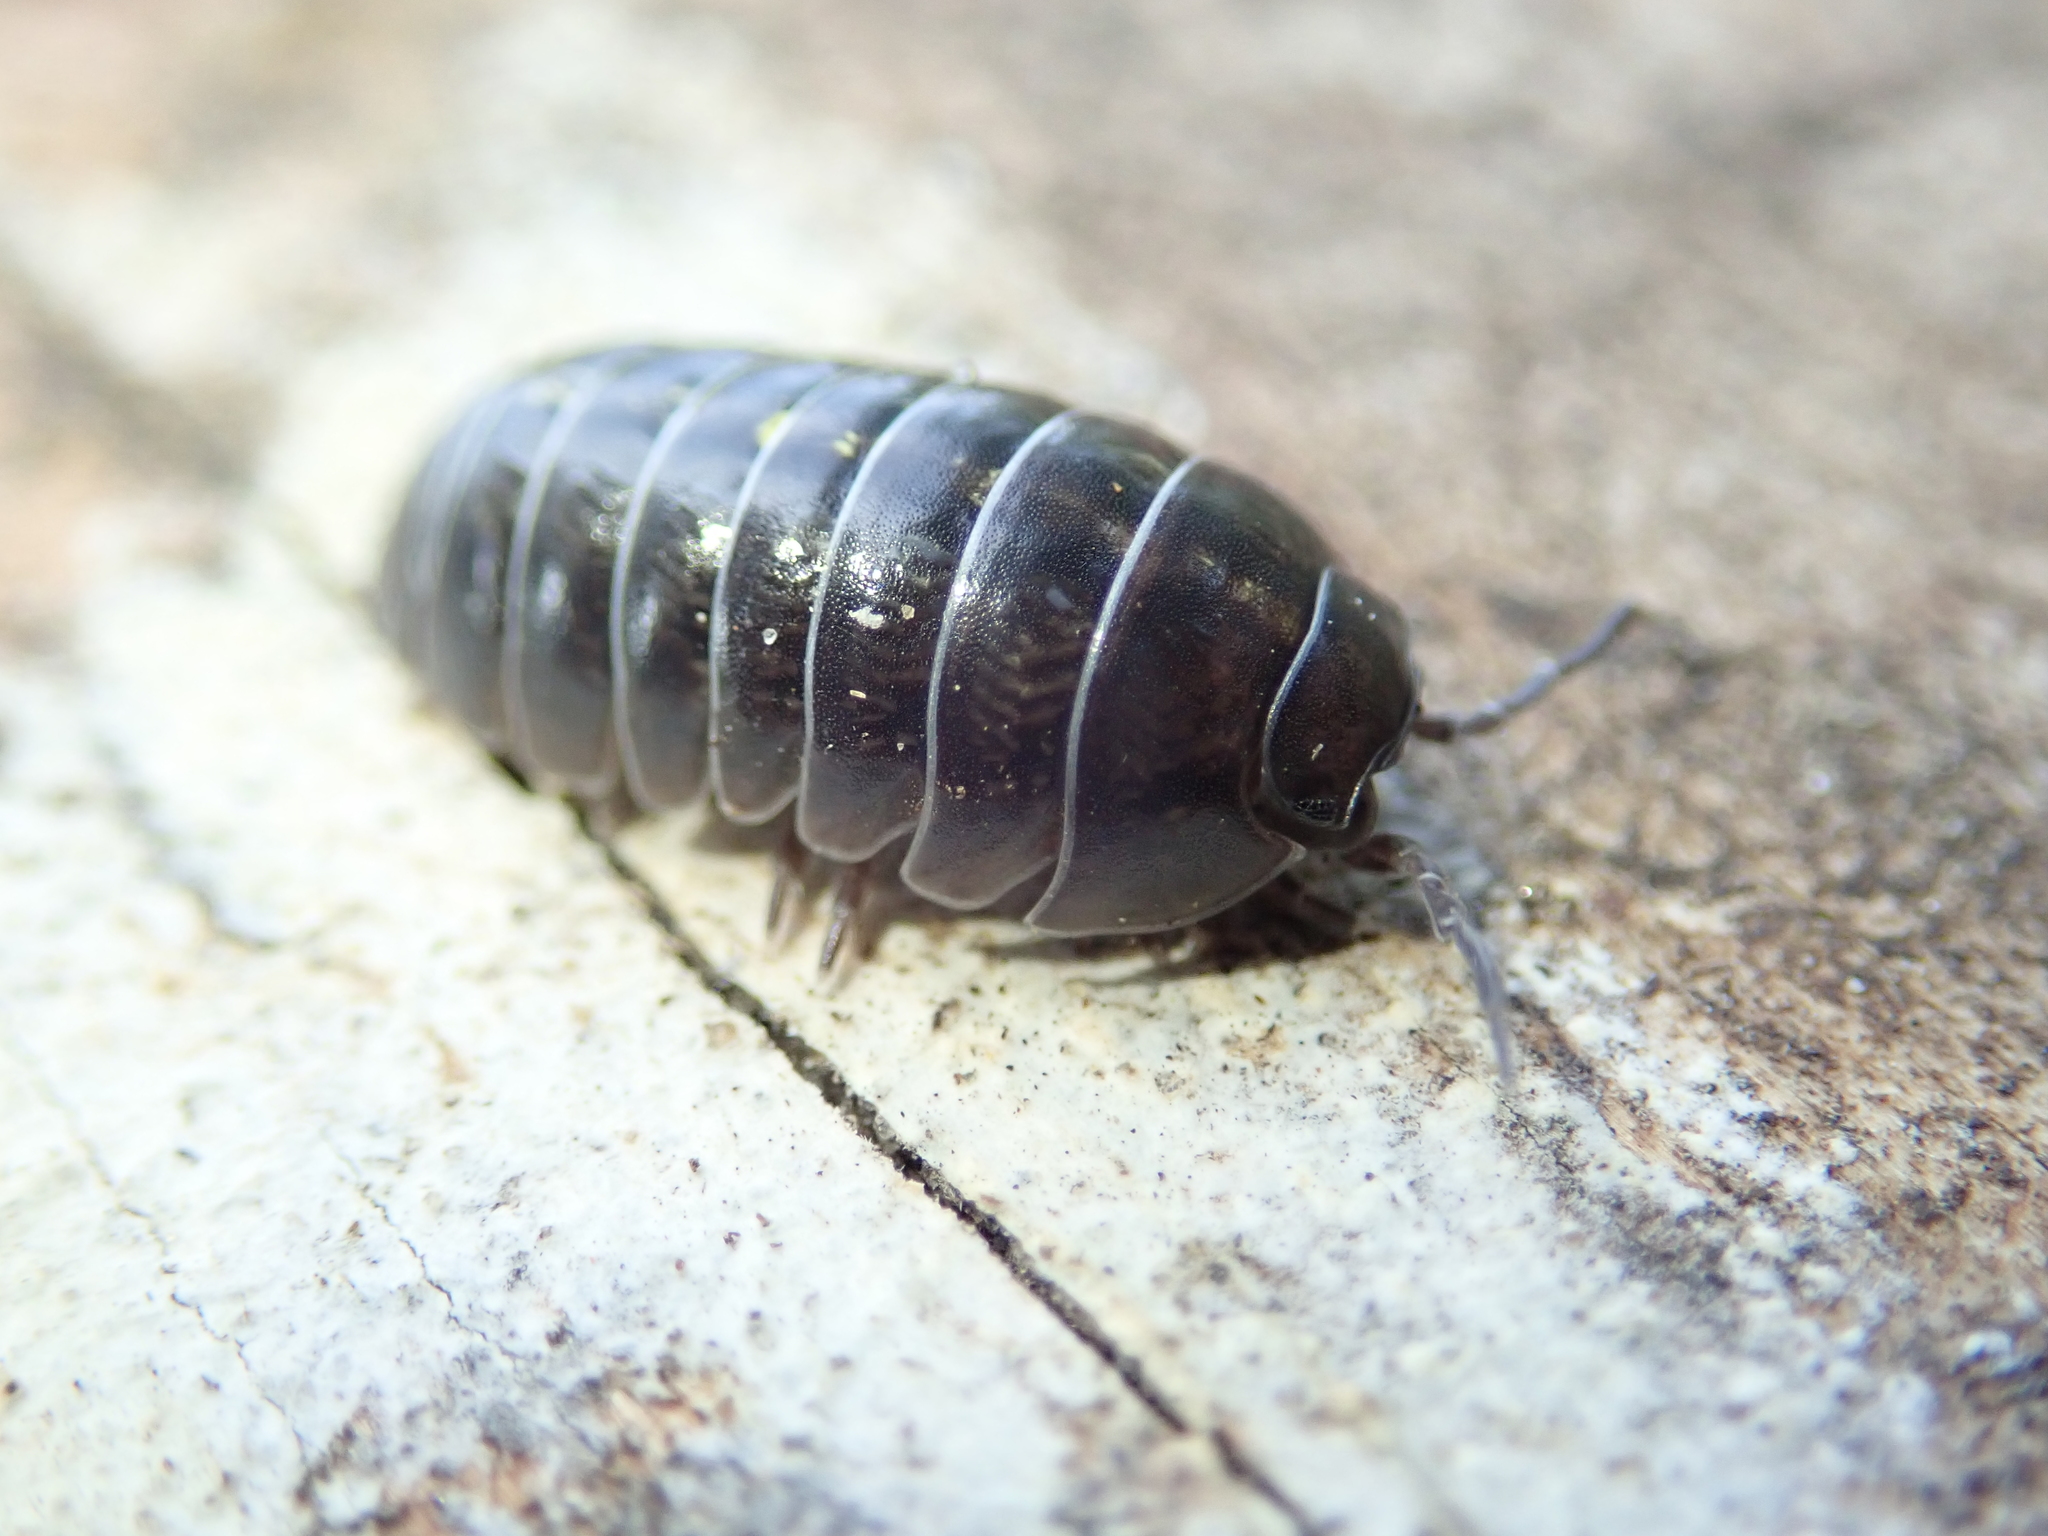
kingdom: Animalia
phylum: Arthropoda
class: Malacostraca
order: Isopoda
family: Armadillidiidae
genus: Armadillidium
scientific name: Armadillidium vulgare
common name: Common pill woodlouse
